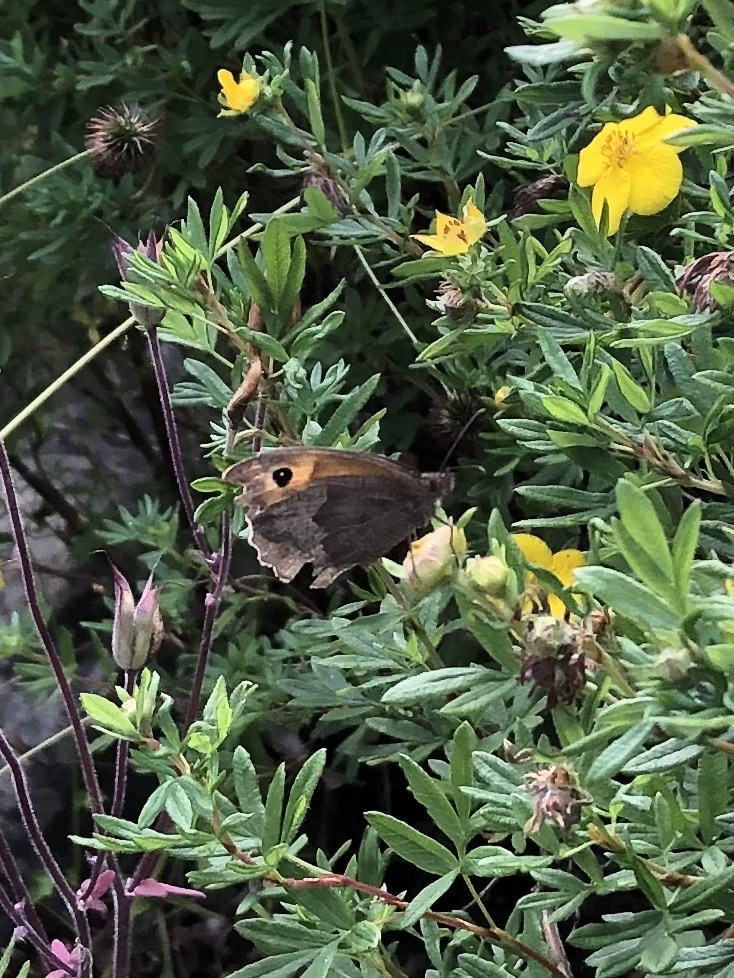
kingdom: Animalia
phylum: Arthropoda
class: Insecta
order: Lepidoptera
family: Nymphalidae
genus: Maniola
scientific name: Maniola jurtina
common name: Meadow brown
